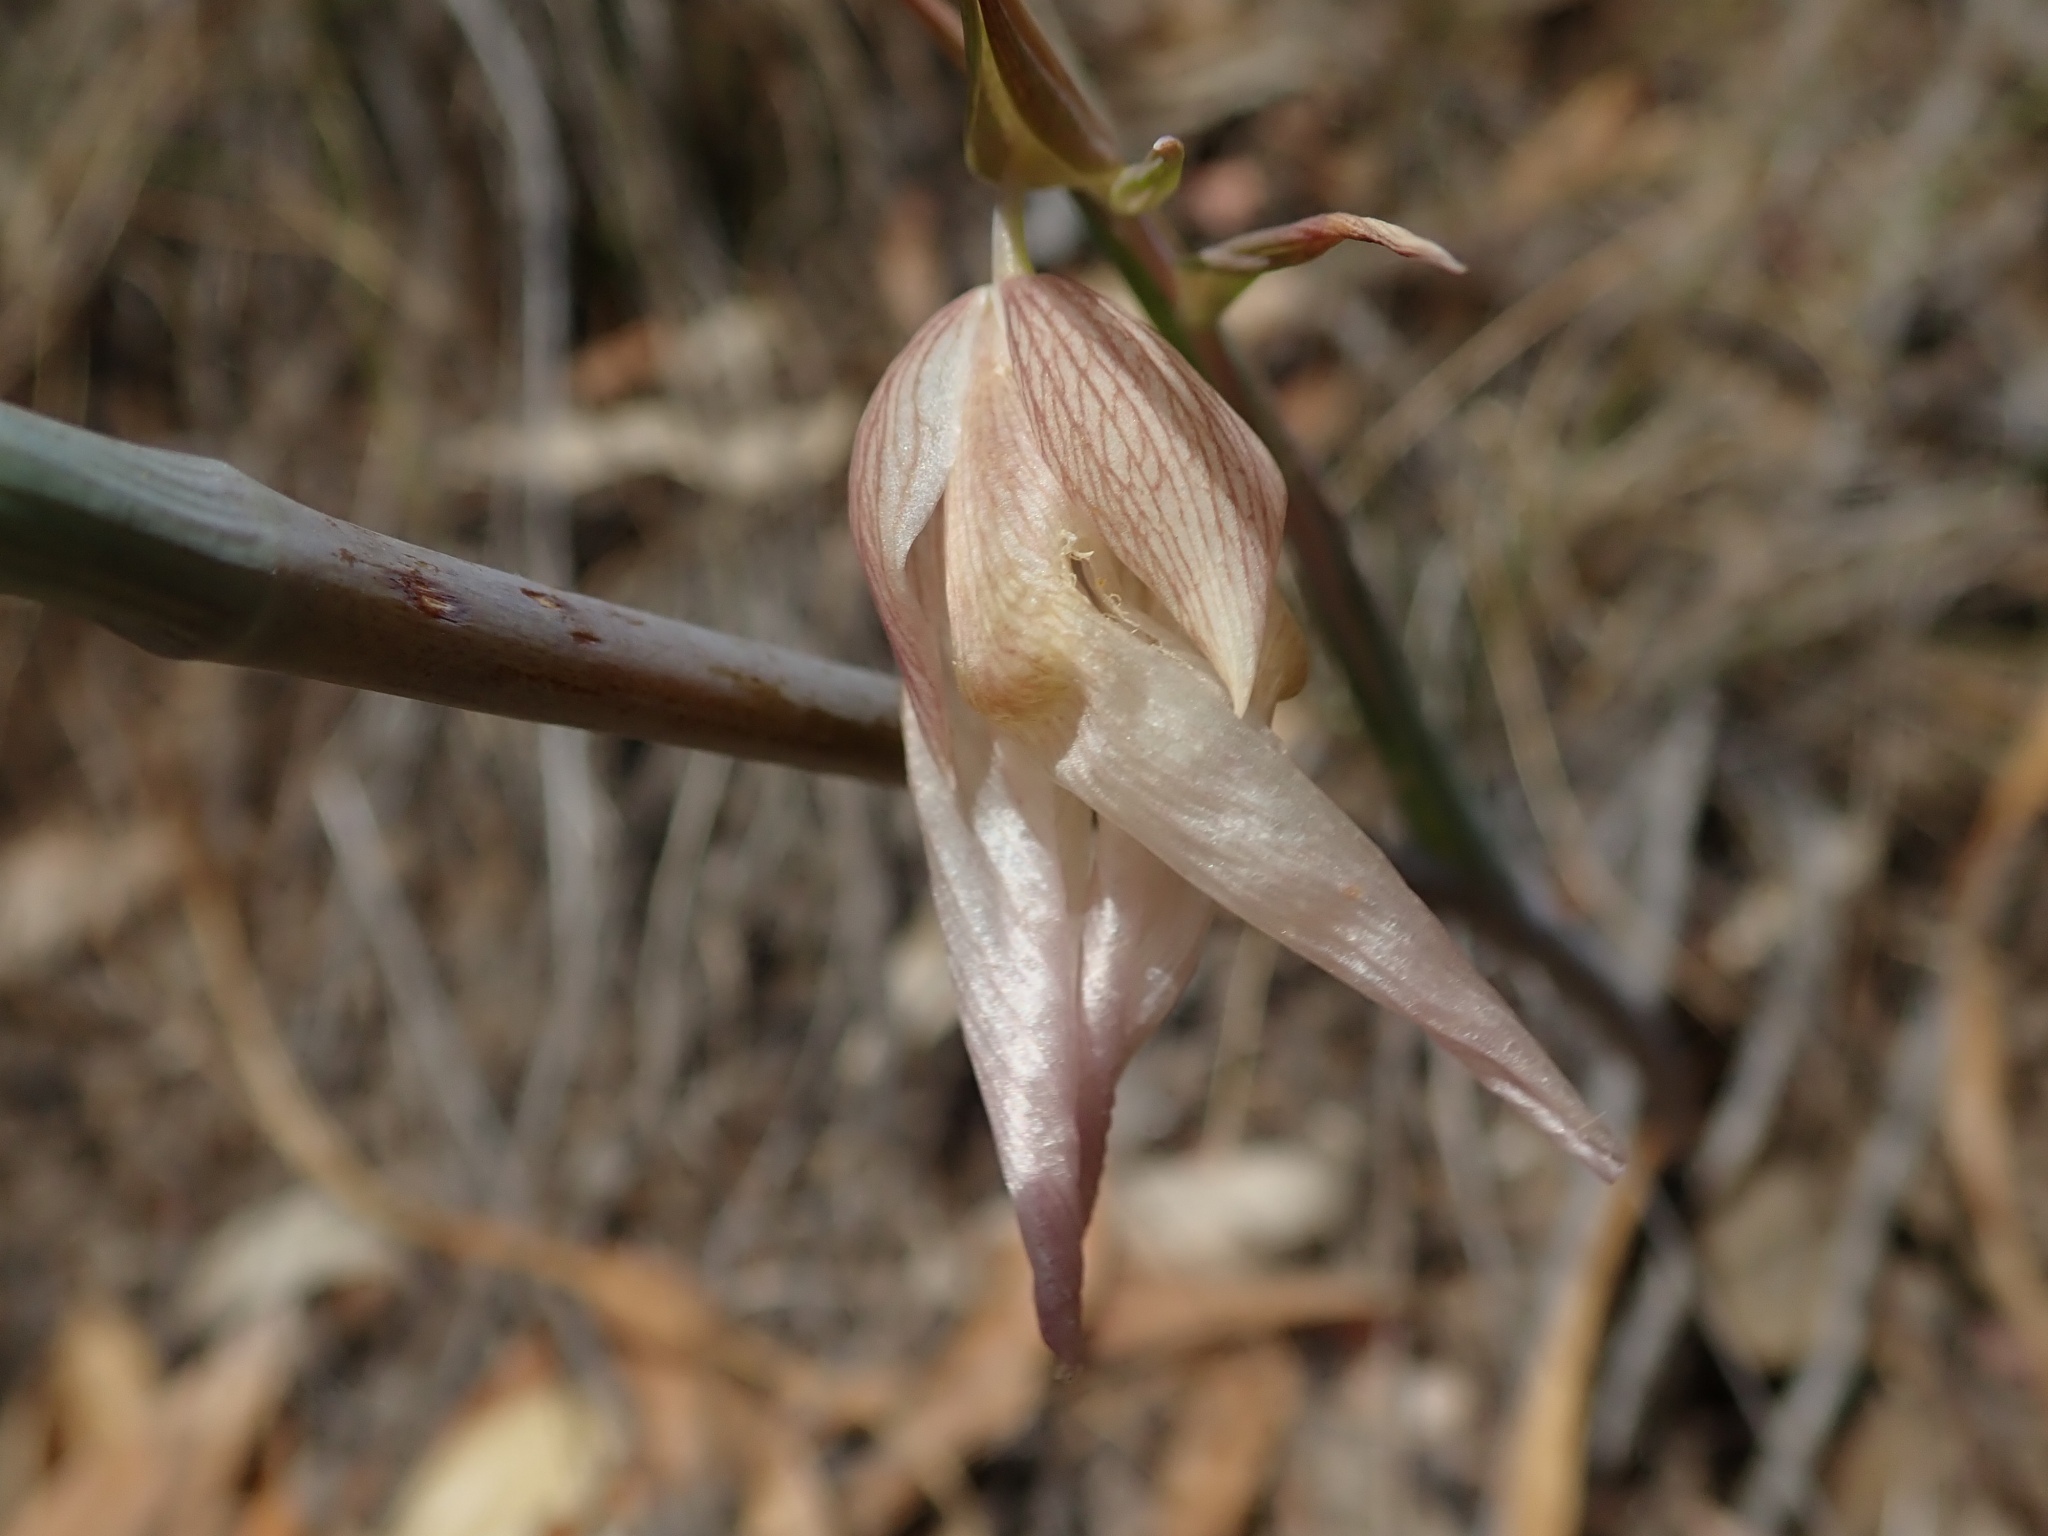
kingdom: Plantae
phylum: Tracheophyta
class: Liliopsida
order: Liliales
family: Liliaceae
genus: Calochortus
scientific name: Calochortus albus
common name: Fairy-lantern
